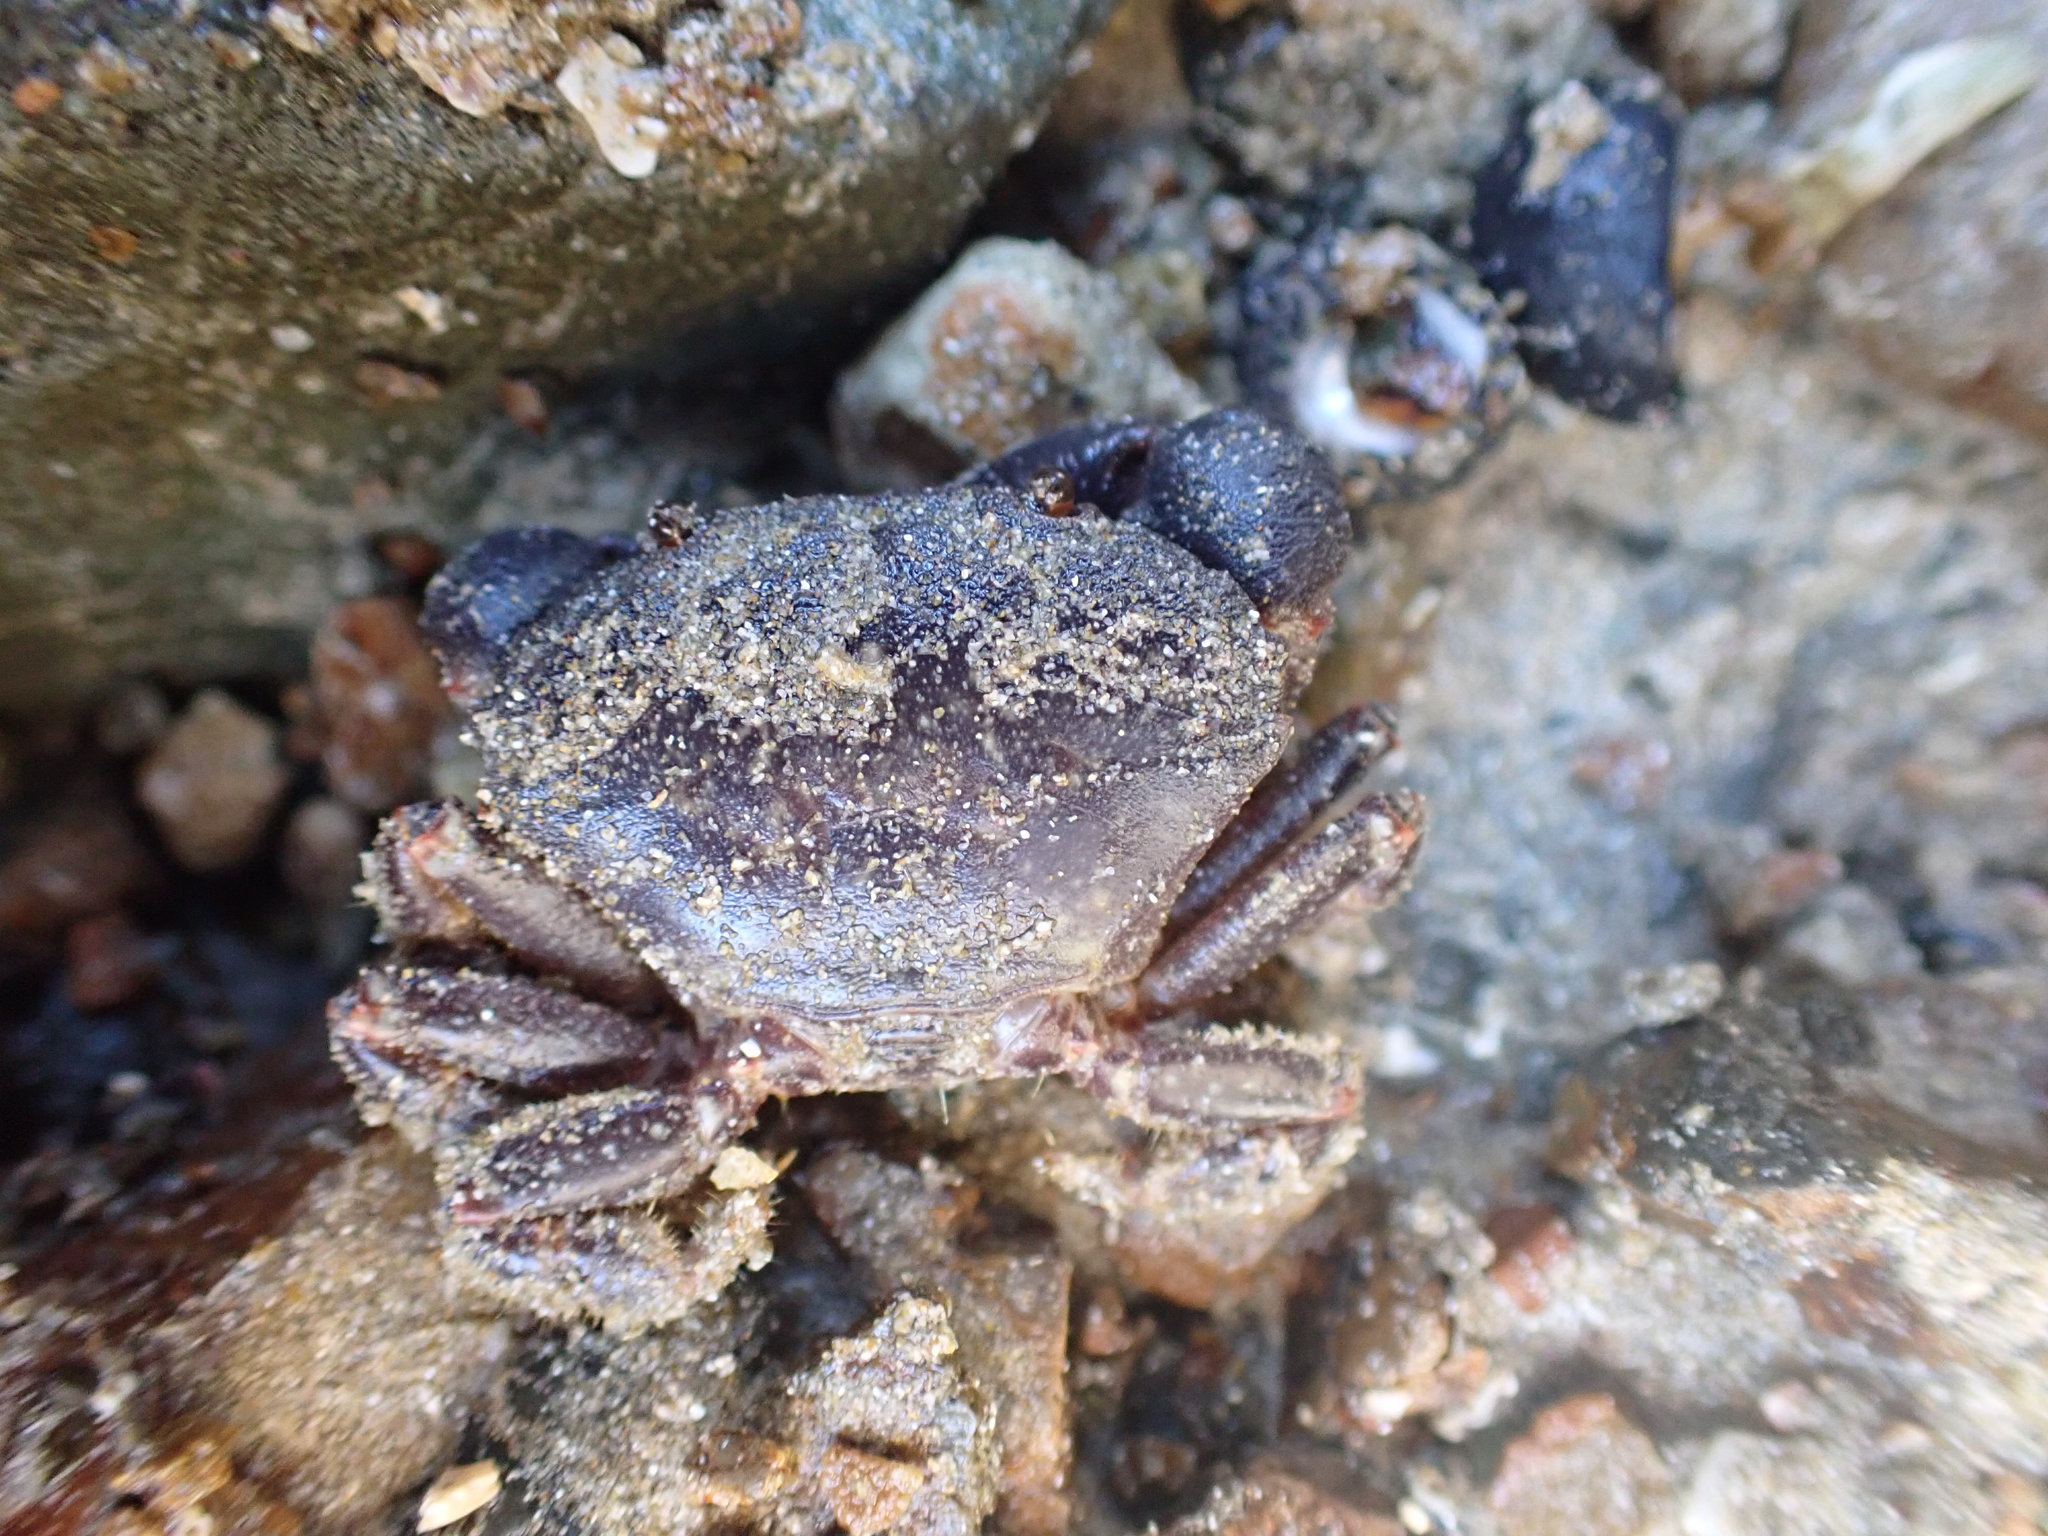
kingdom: Animalia
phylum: Arthropoda
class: Malacostraca
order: Decapoda
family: Oziidae
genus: Ozius
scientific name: Ozius deplanatus
